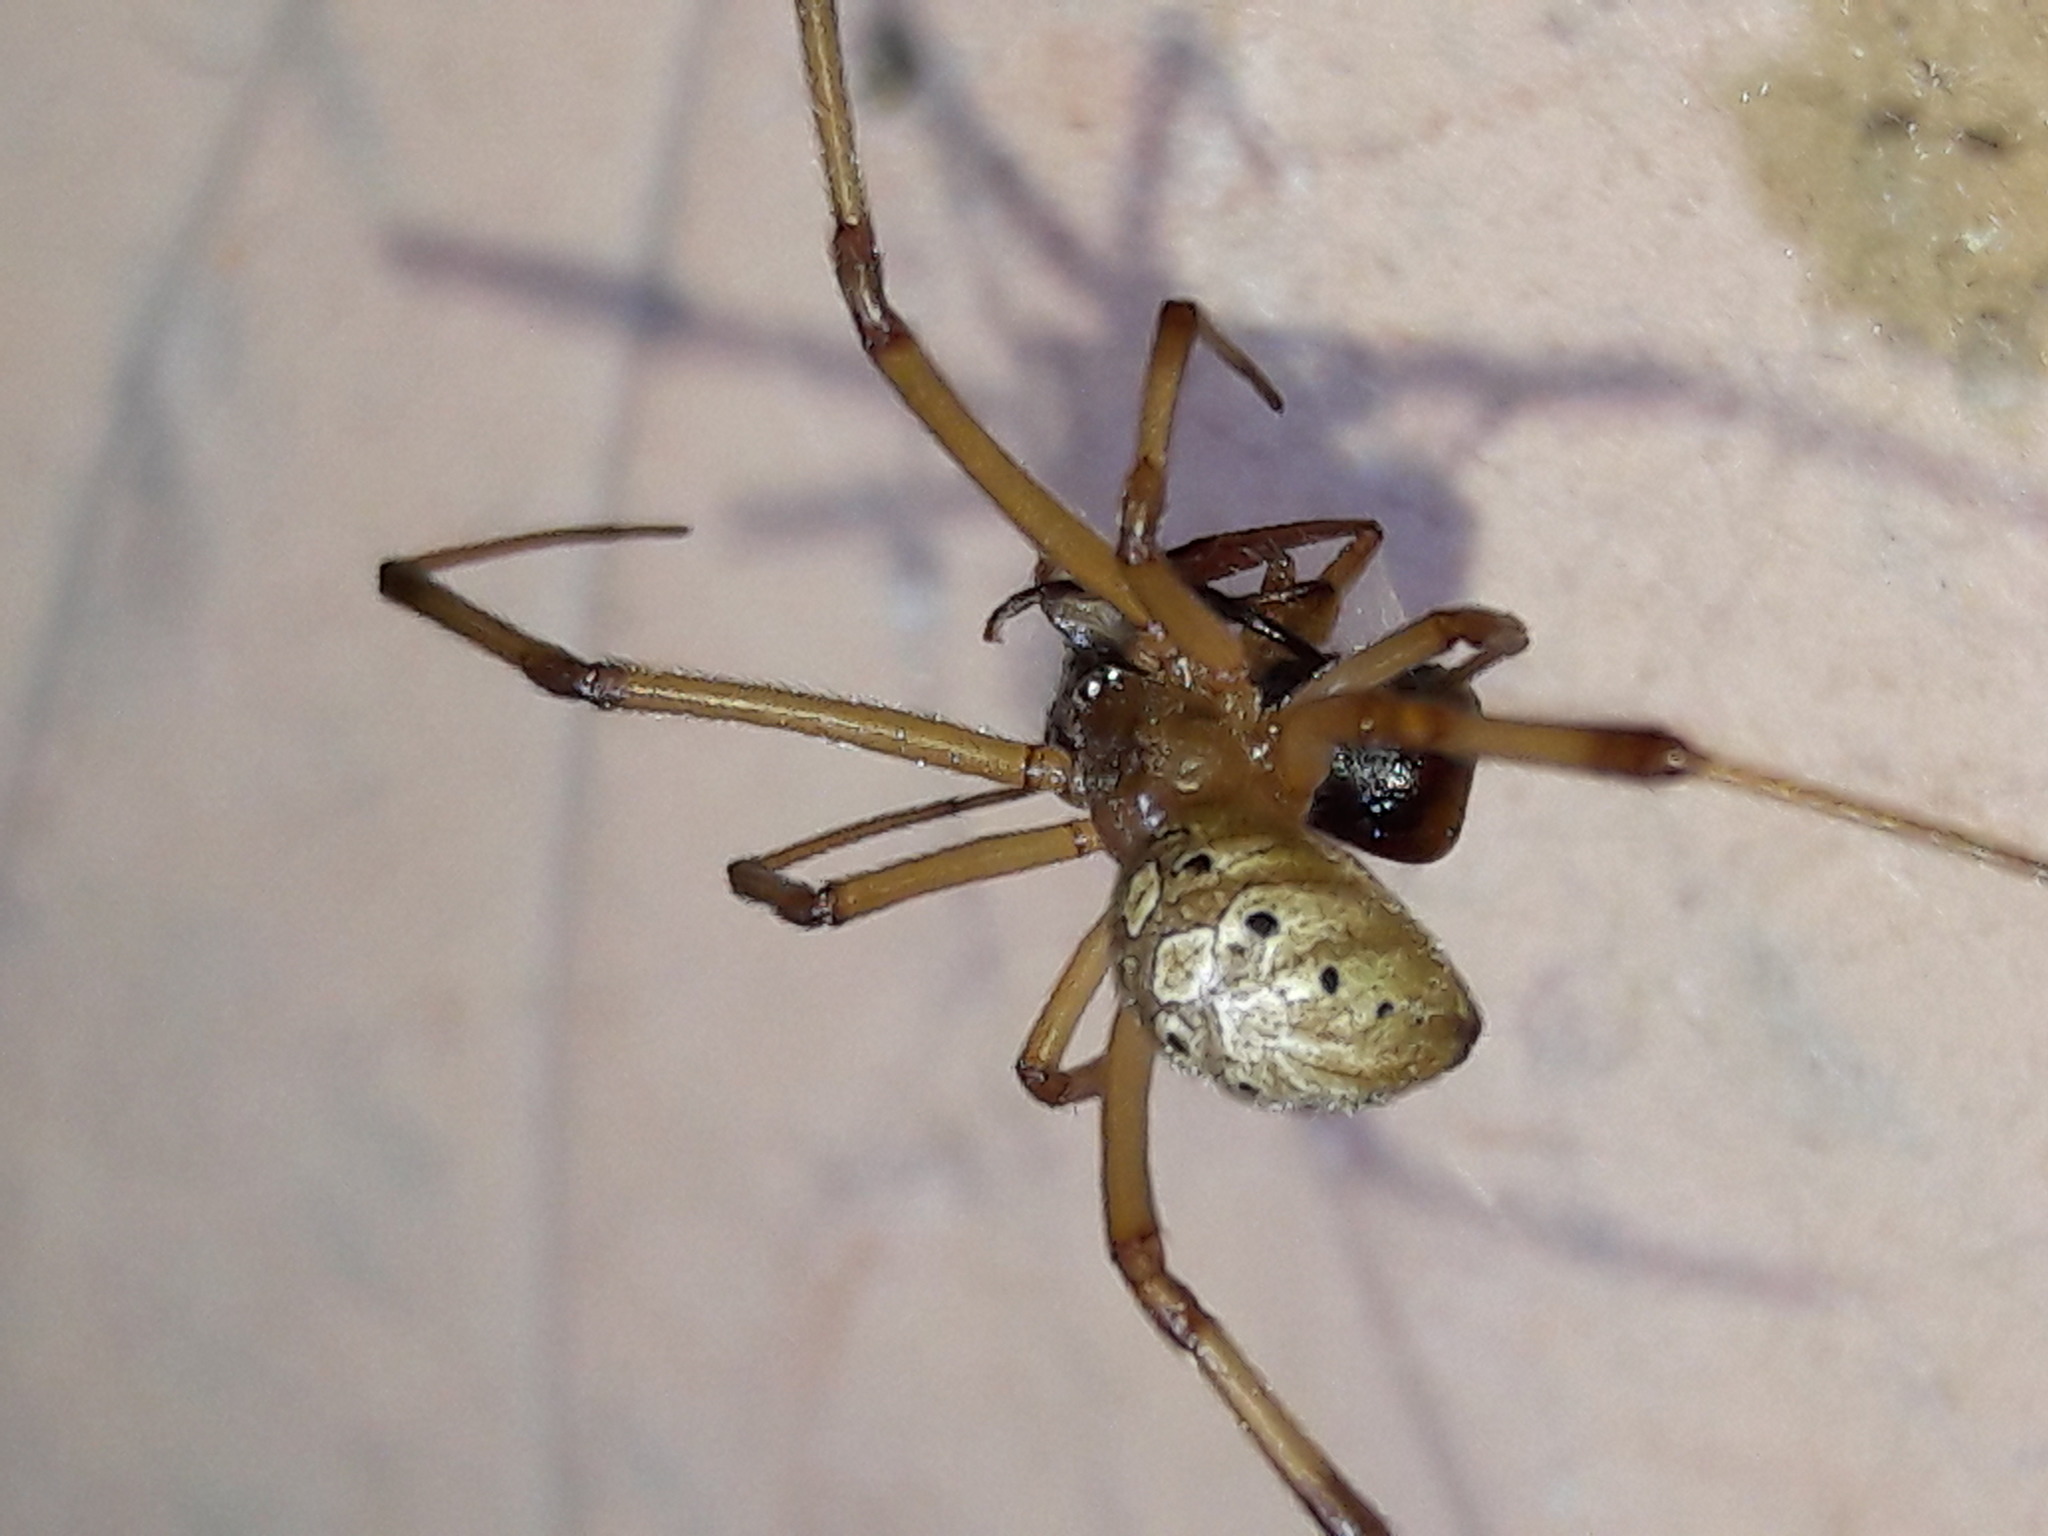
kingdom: Animalia
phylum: Arthropoda
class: Arachnida
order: Araneae
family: Theridiidae
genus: Latrodectus
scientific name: Latrodectus geometricus
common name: Brown widow spider
